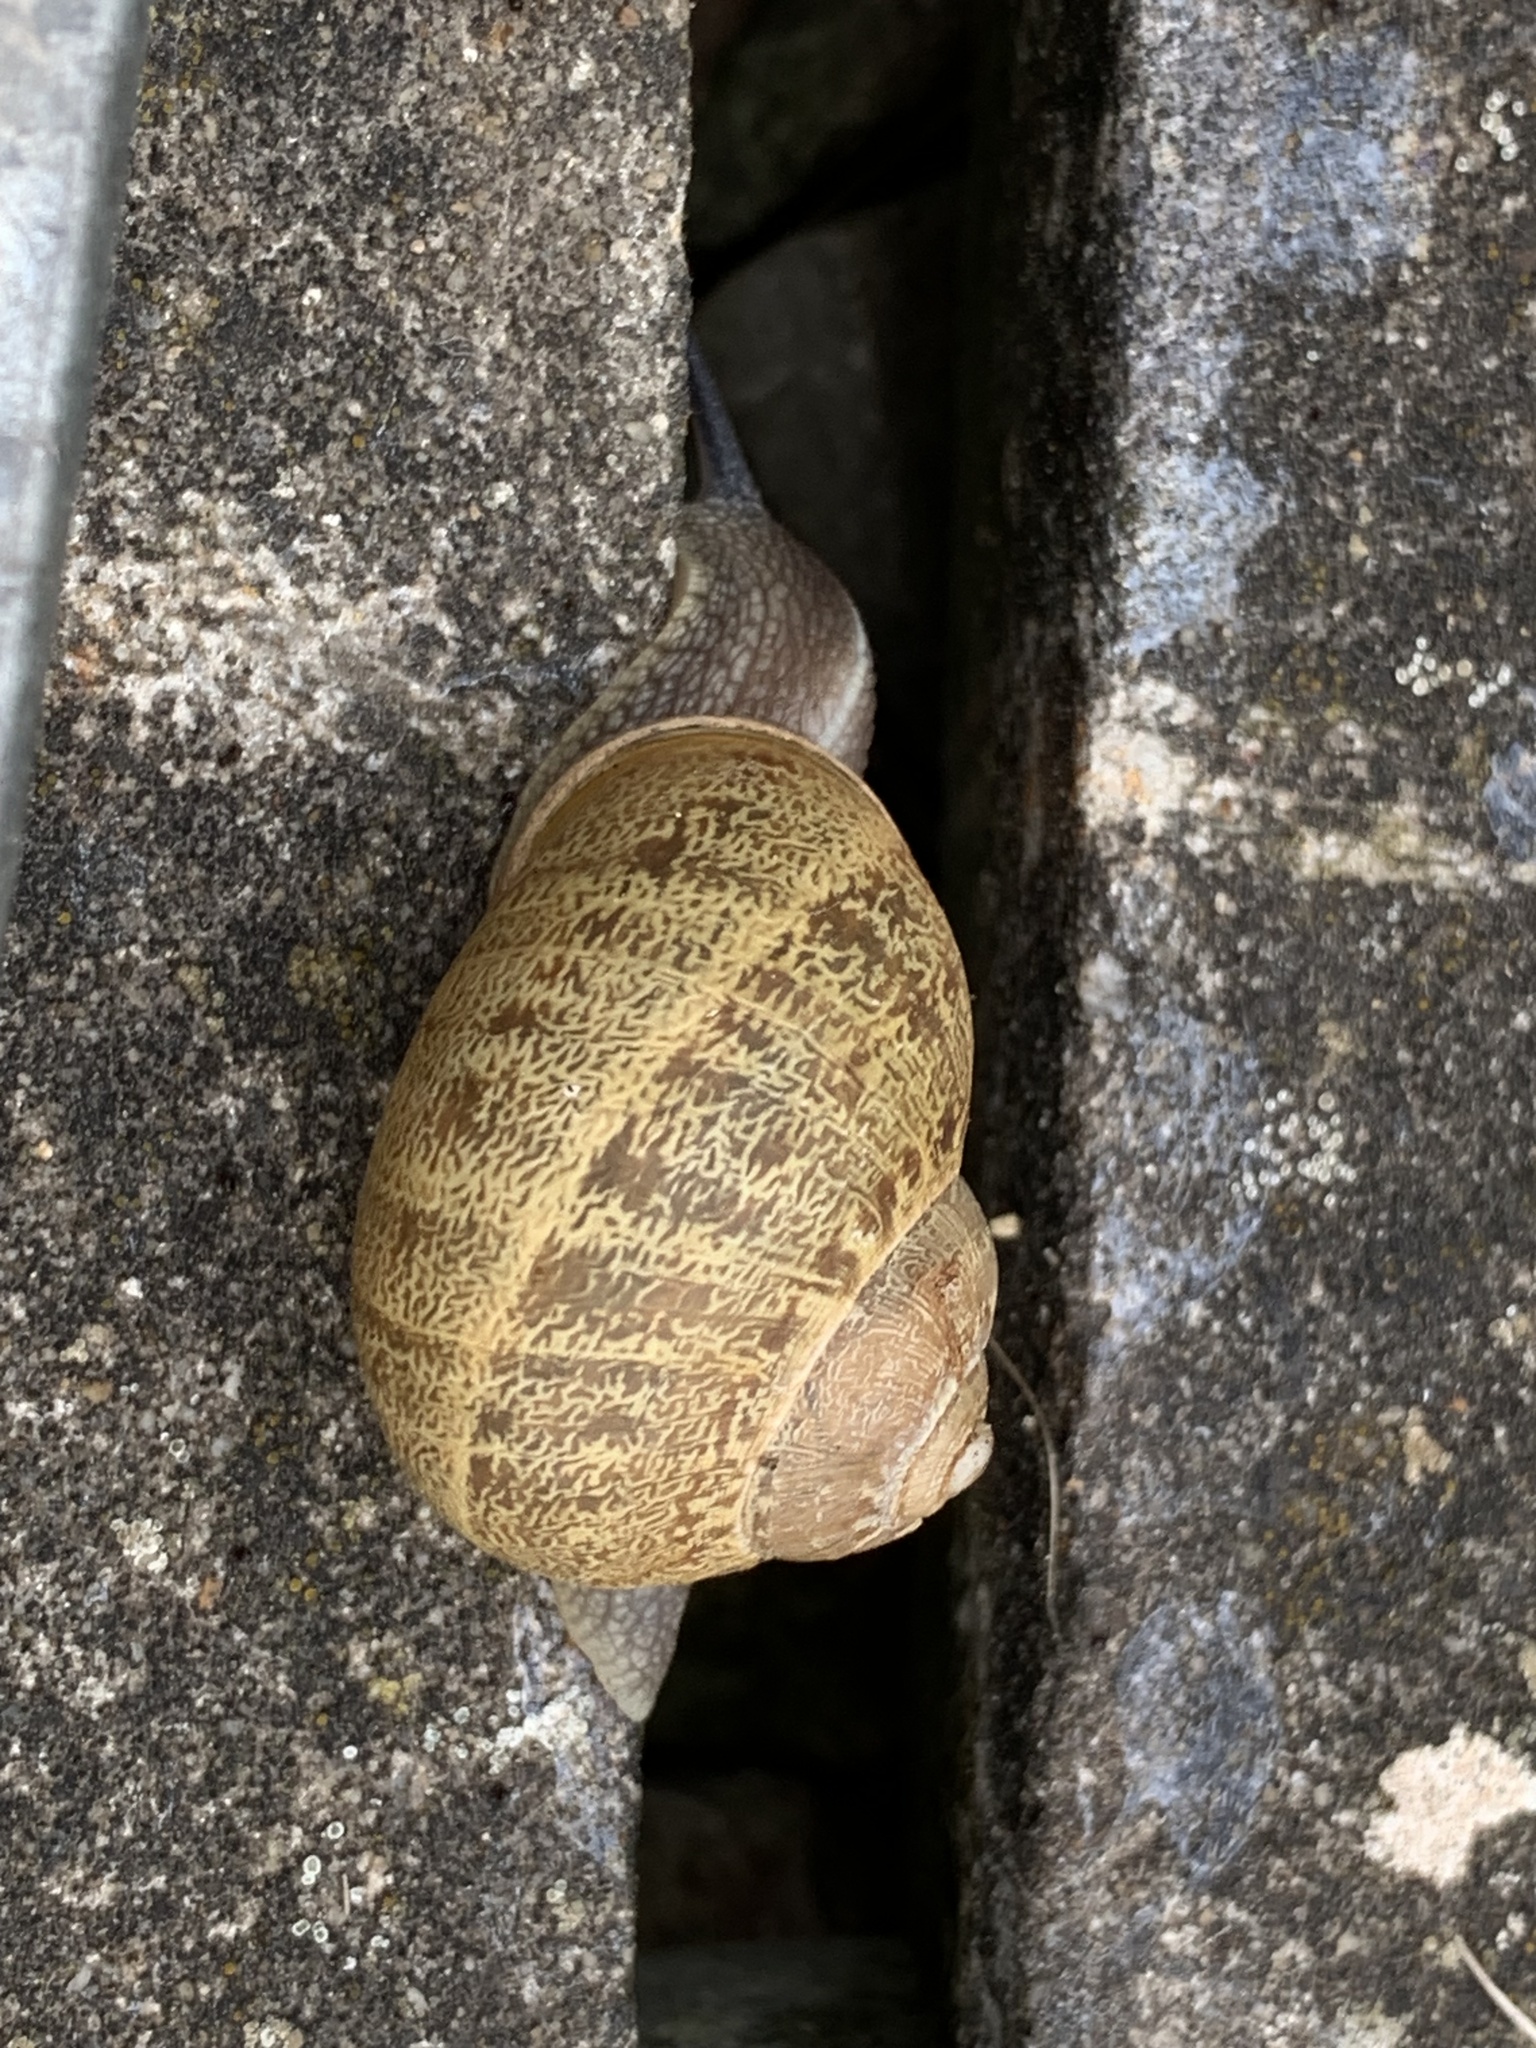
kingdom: Animalia
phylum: Mollusca
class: Gastropoda
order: Stylommatophora
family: Helicidae
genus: Cornu
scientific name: Cornu aspersum
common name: Brown garden snail
